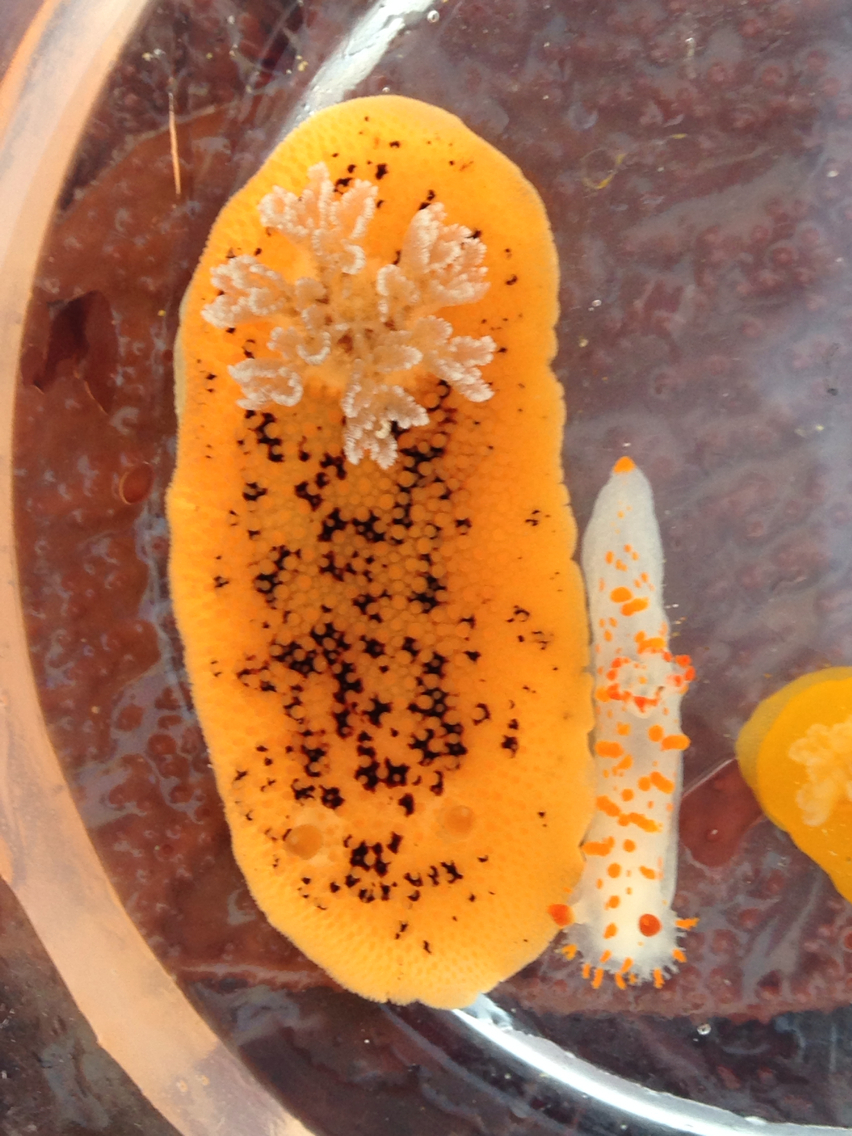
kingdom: Animalia
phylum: Mollusca
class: Gastropoda
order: Nudibranchia
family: Discodorididae
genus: Peltodoris
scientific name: Peltodoris nobilis
